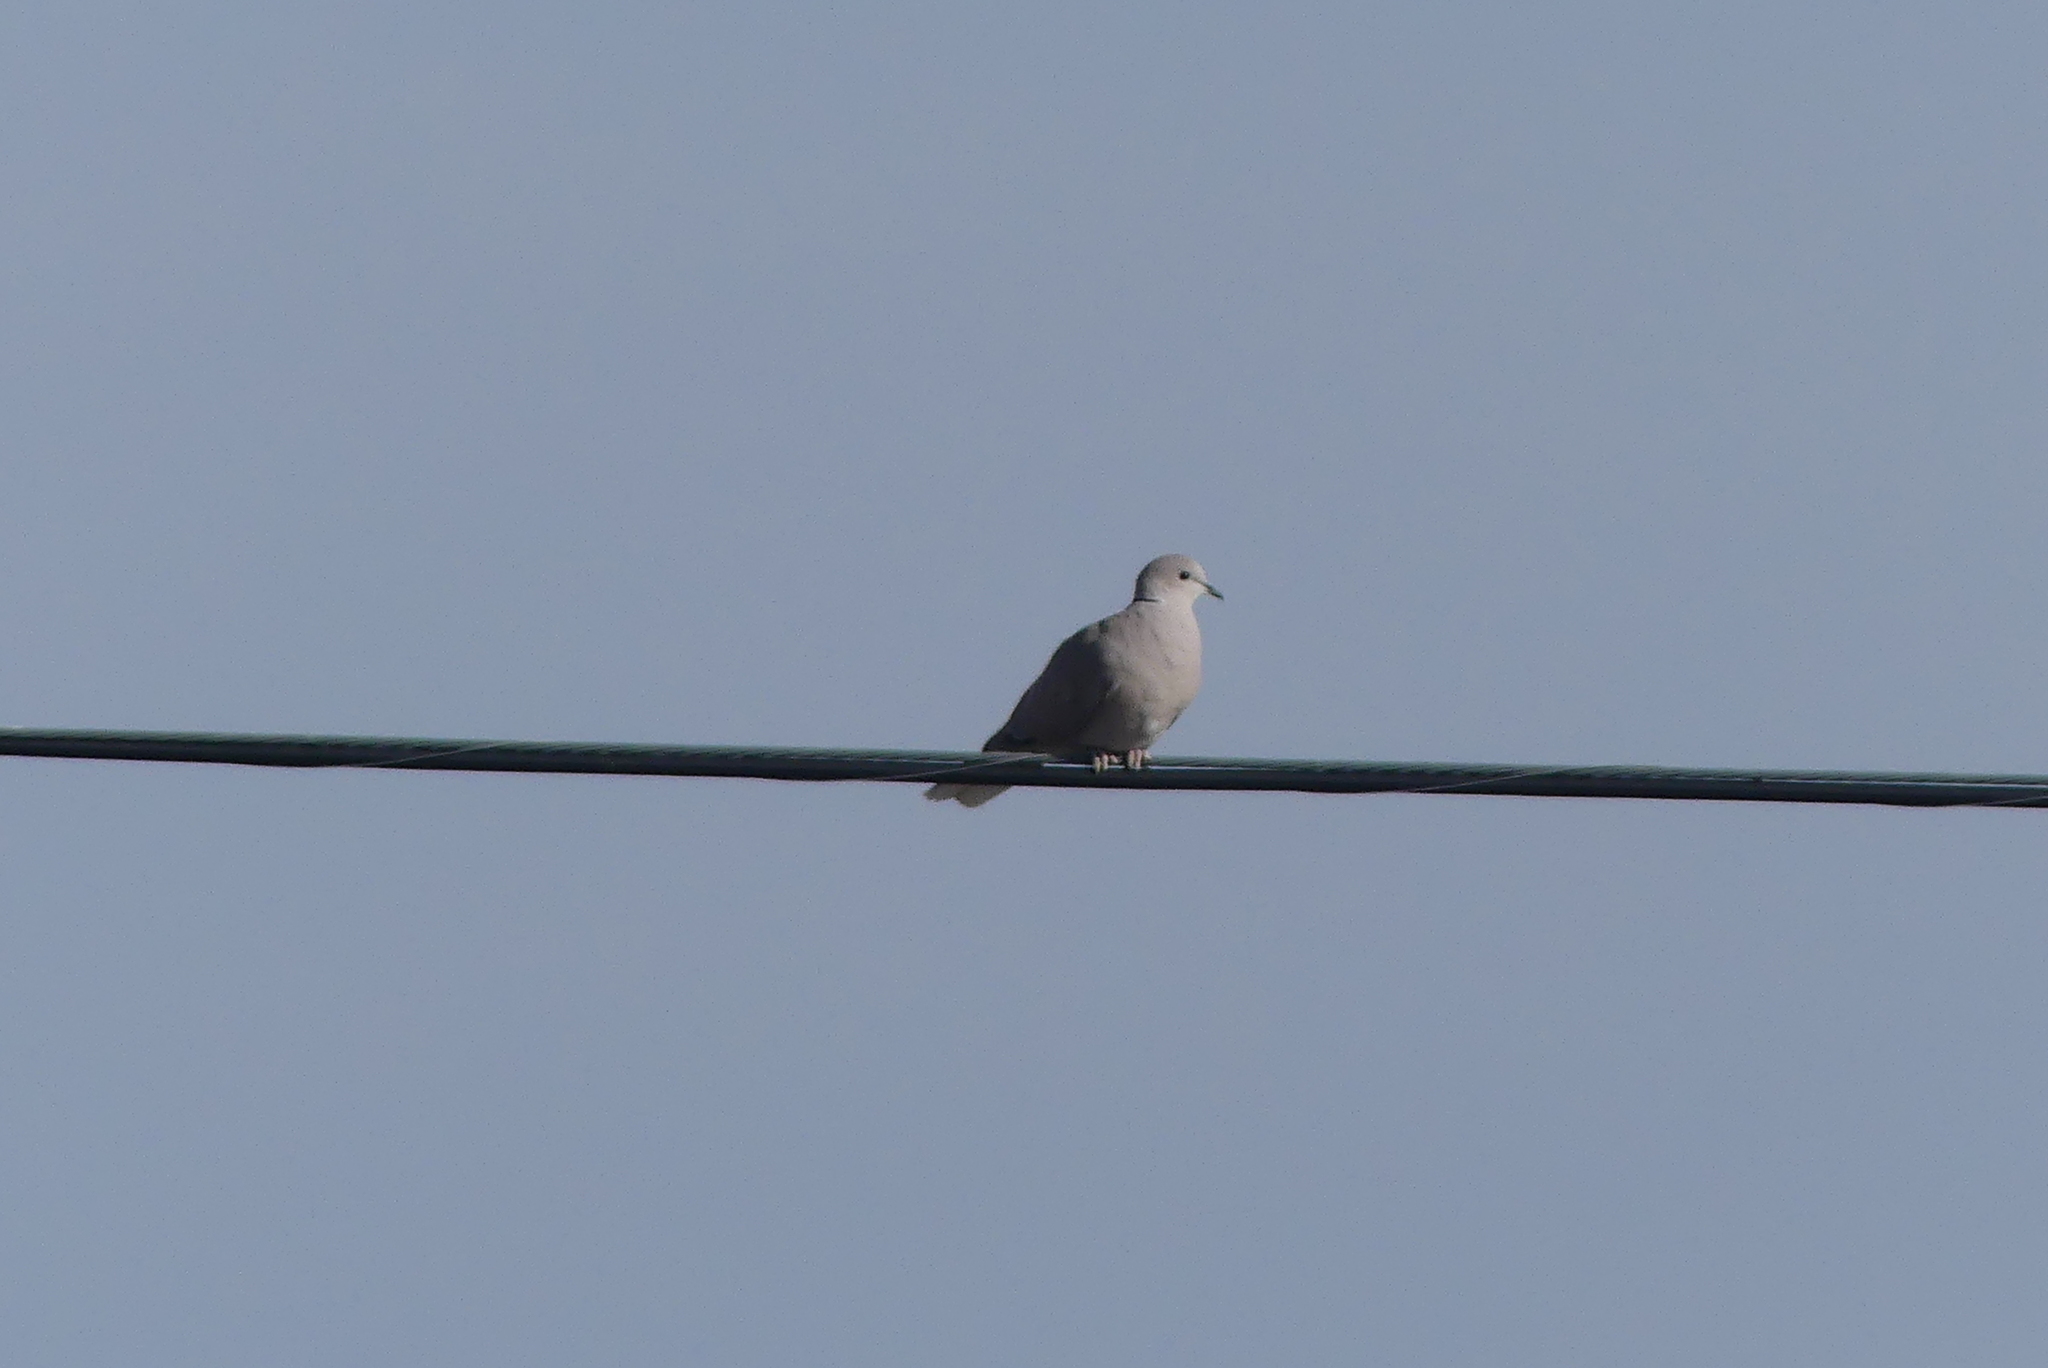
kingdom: Animalia
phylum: Chordata
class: Aves
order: Columbiformes
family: Columbidae
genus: Streptopelia
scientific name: Streptopelia decaocto
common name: Eurasian collared dove
